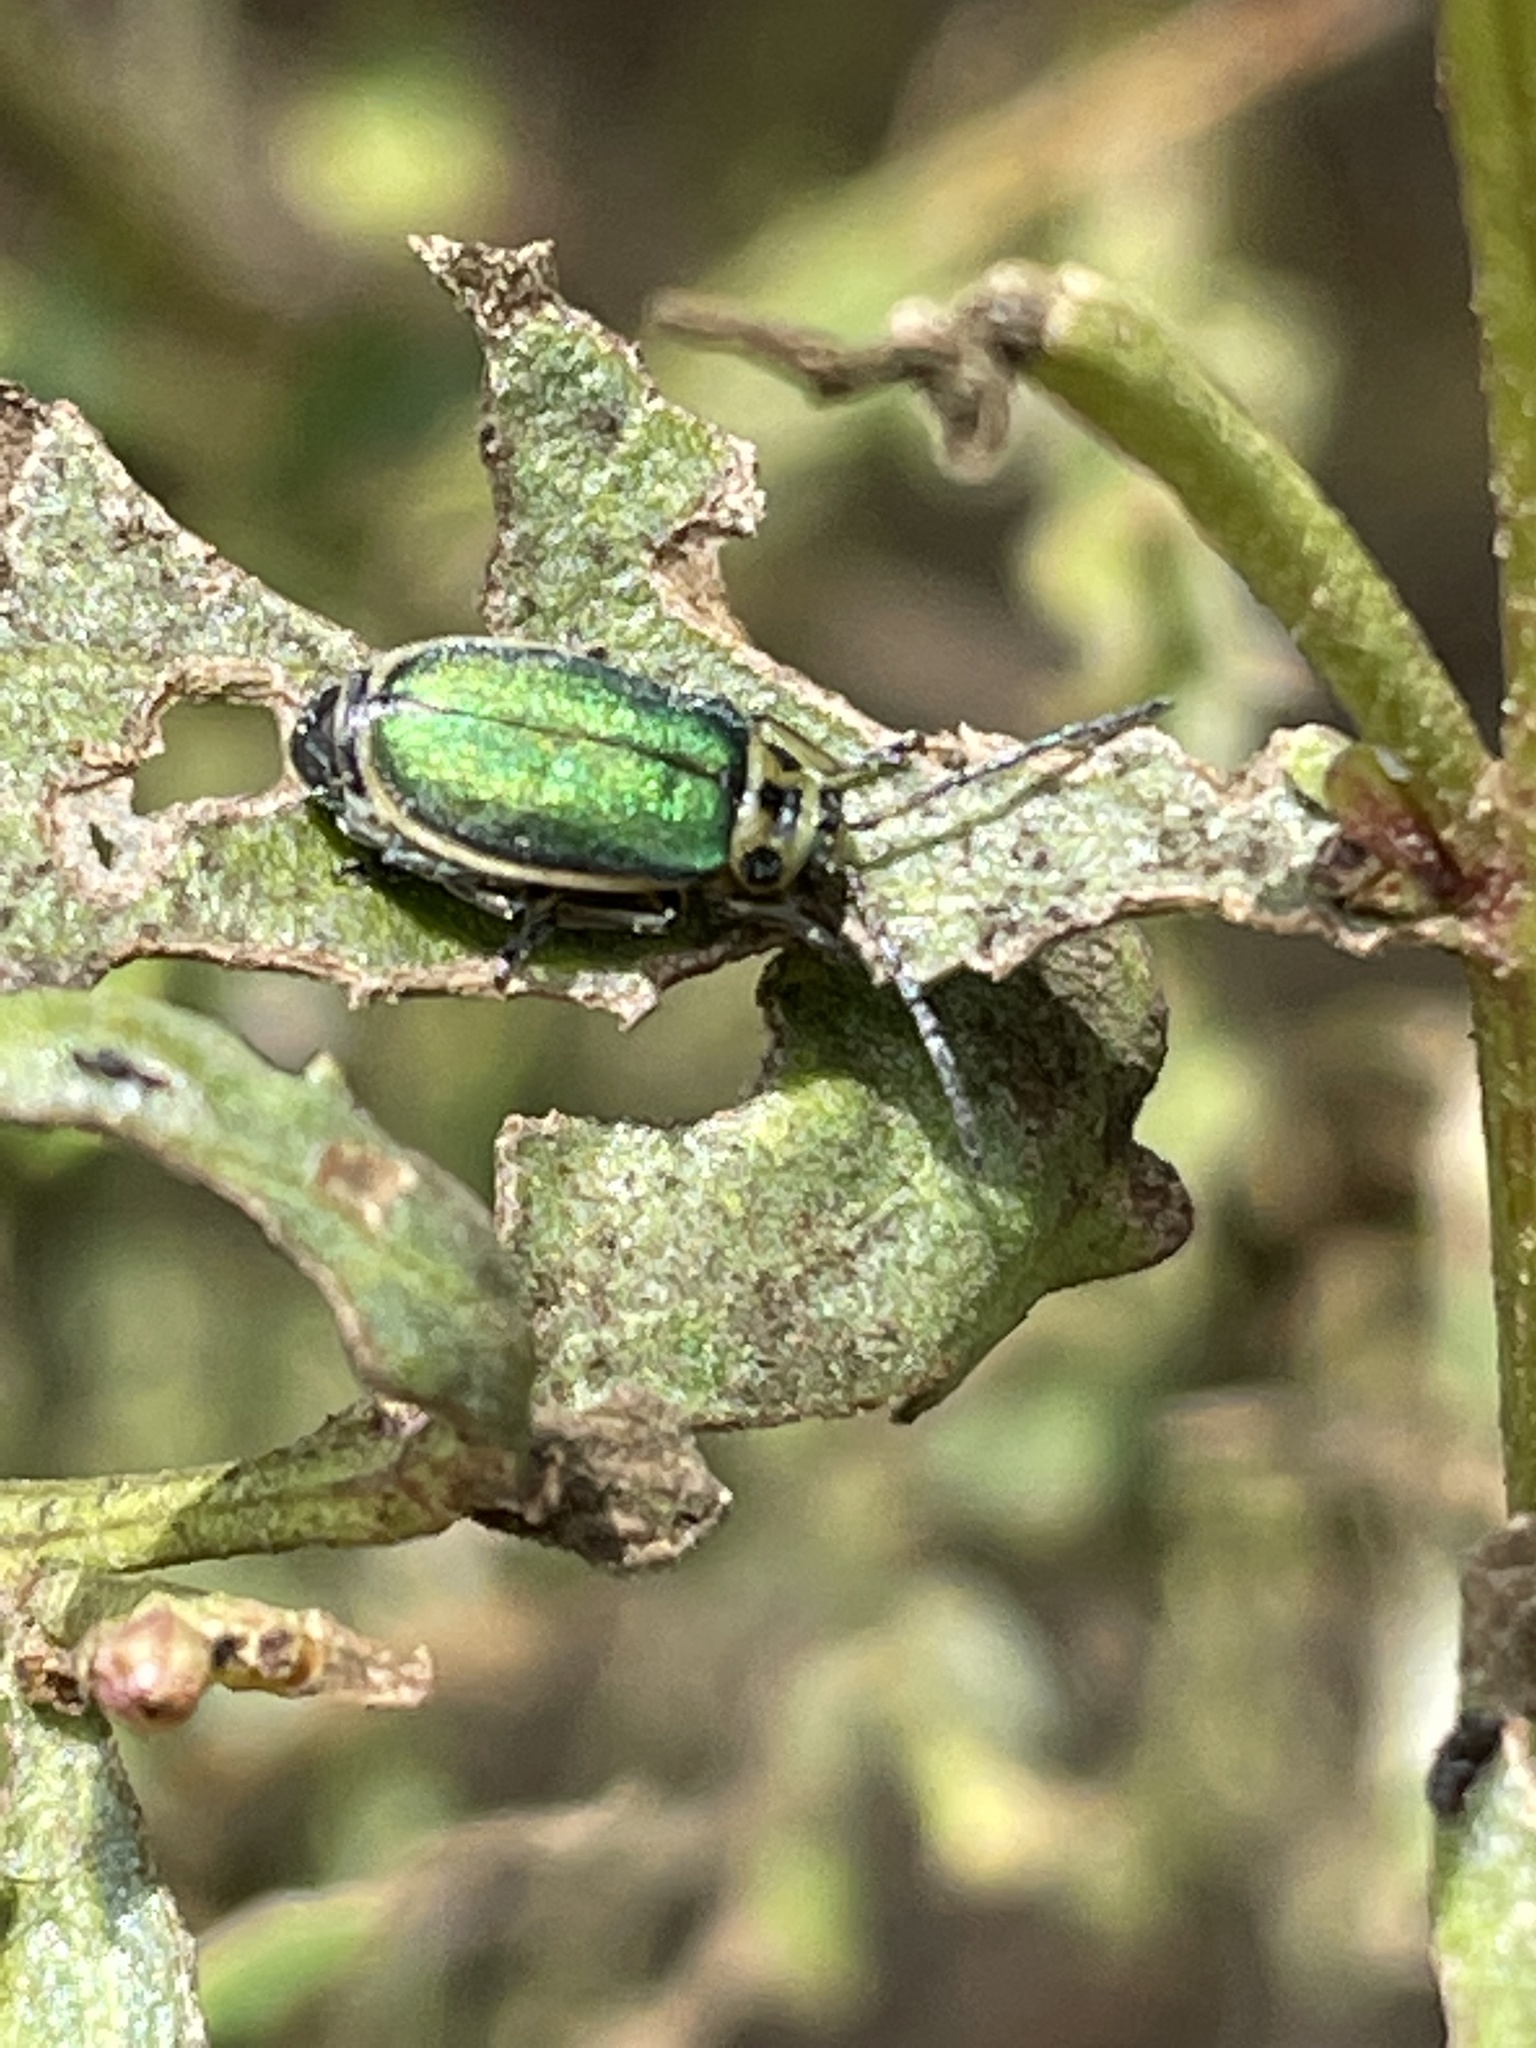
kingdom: Plantae
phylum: Tracheophyta
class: Magnoliopsida
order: Asterales
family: Asteraceae
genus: Baccharis
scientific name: Baccharis pilularis
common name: Coyotebrush
